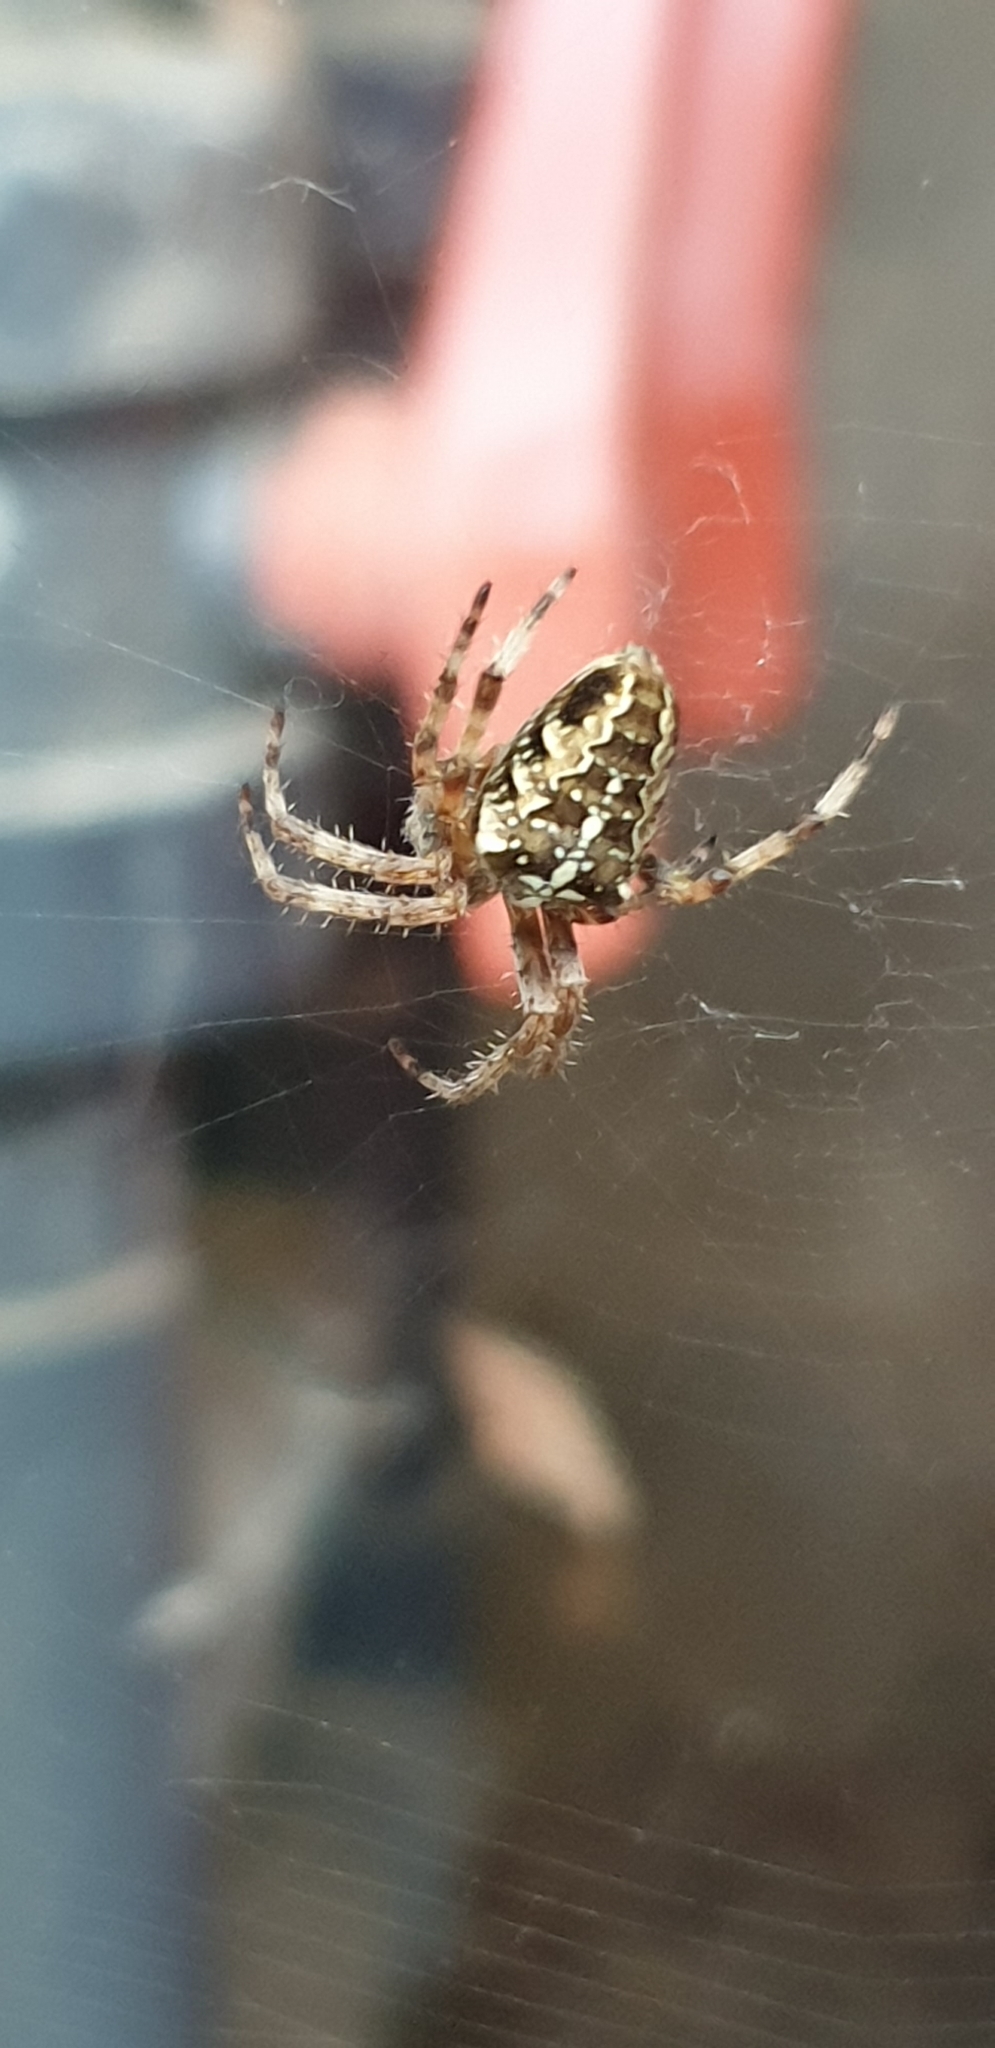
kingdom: Animalia
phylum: Arthropoda
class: Arachnida
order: Araneae
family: Araneidae
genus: Araneus
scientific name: Araneus diadematus
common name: Cross orbweaver
